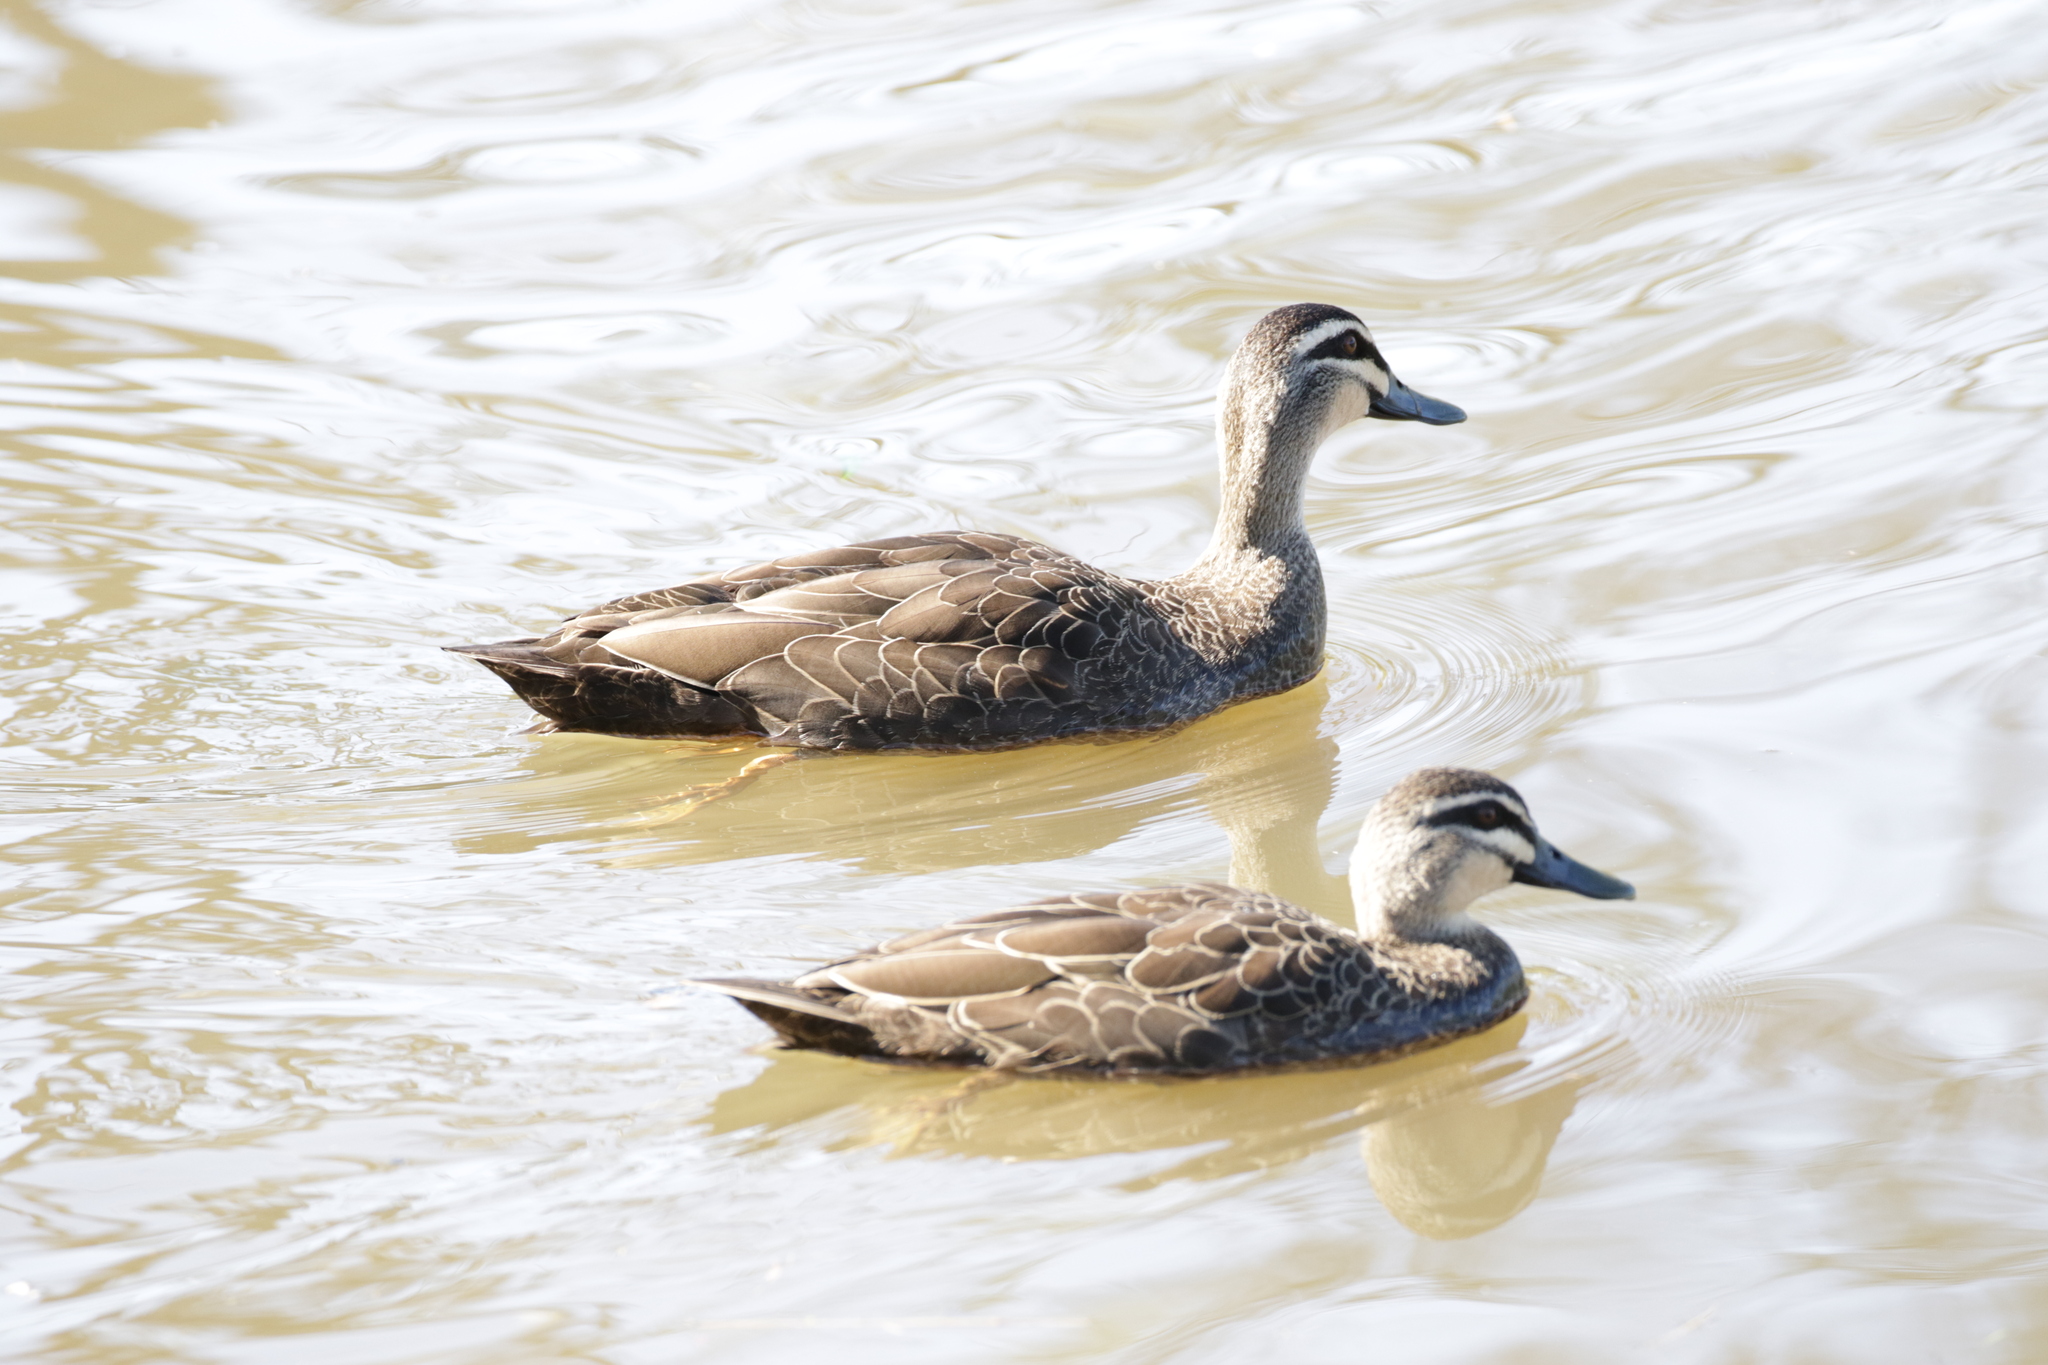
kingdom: Animalia
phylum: Chordata
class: Aves
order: Anseriformes
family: Anatidae
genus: Anas
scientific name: Anas superciliosa
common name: Pacific black duck
